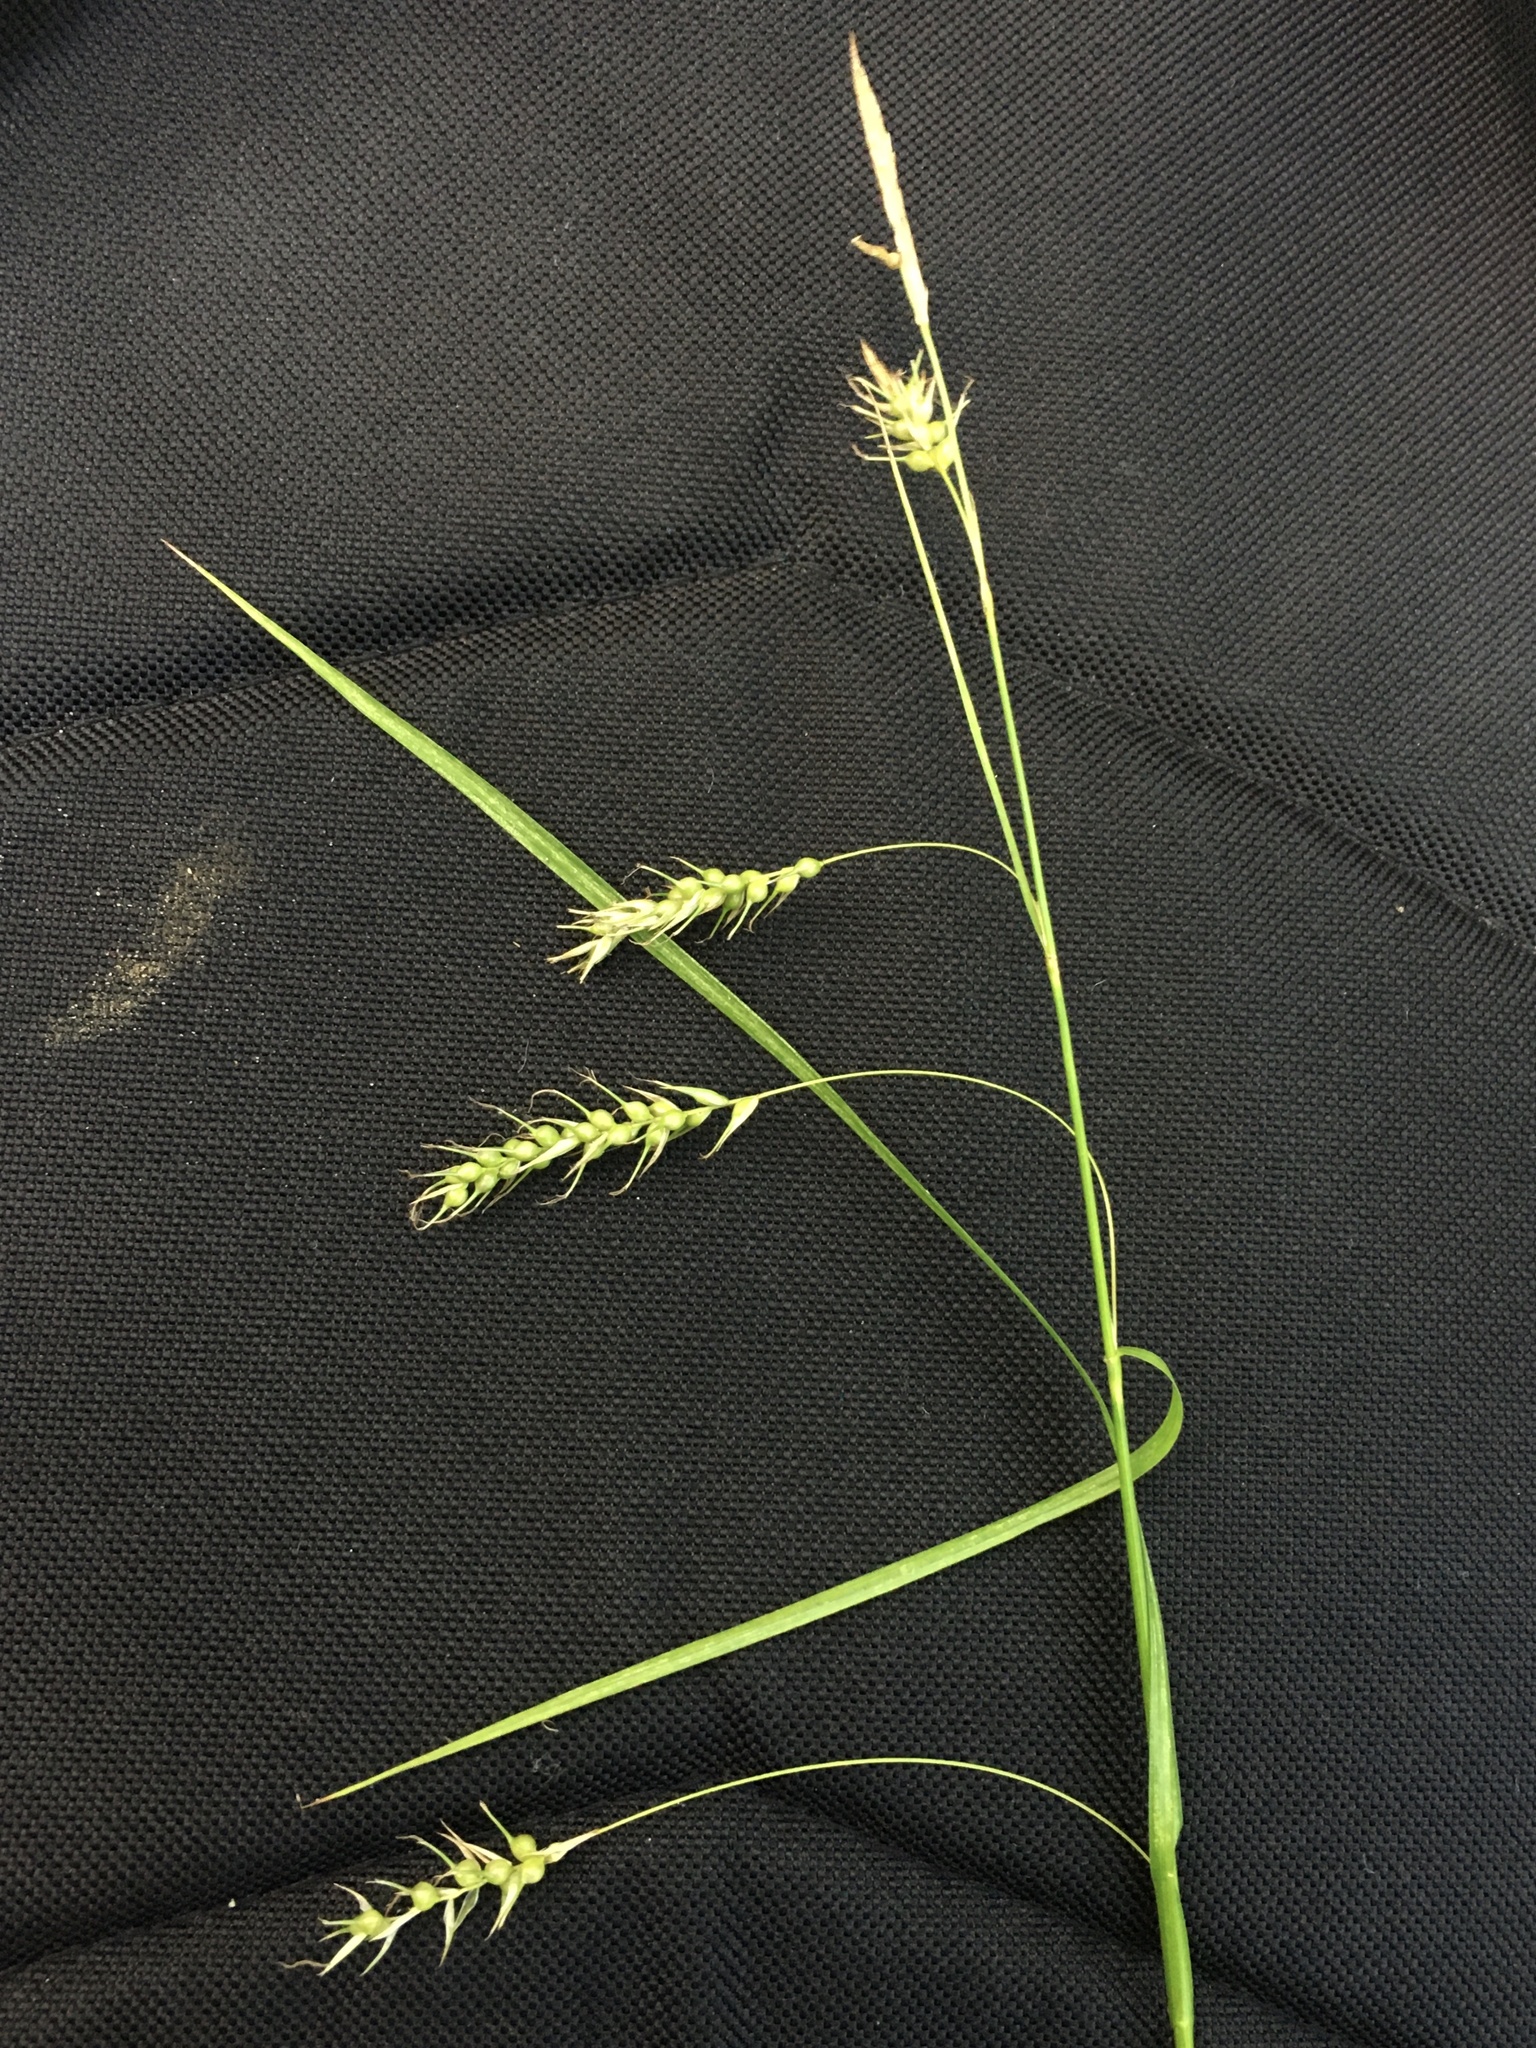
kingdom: Plantae
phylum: Tracheophyta
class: Liliopsida
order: Poales
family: Cyperaceae
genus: Carex
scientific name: Carex sprengelii
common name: Long-beaked sedge
